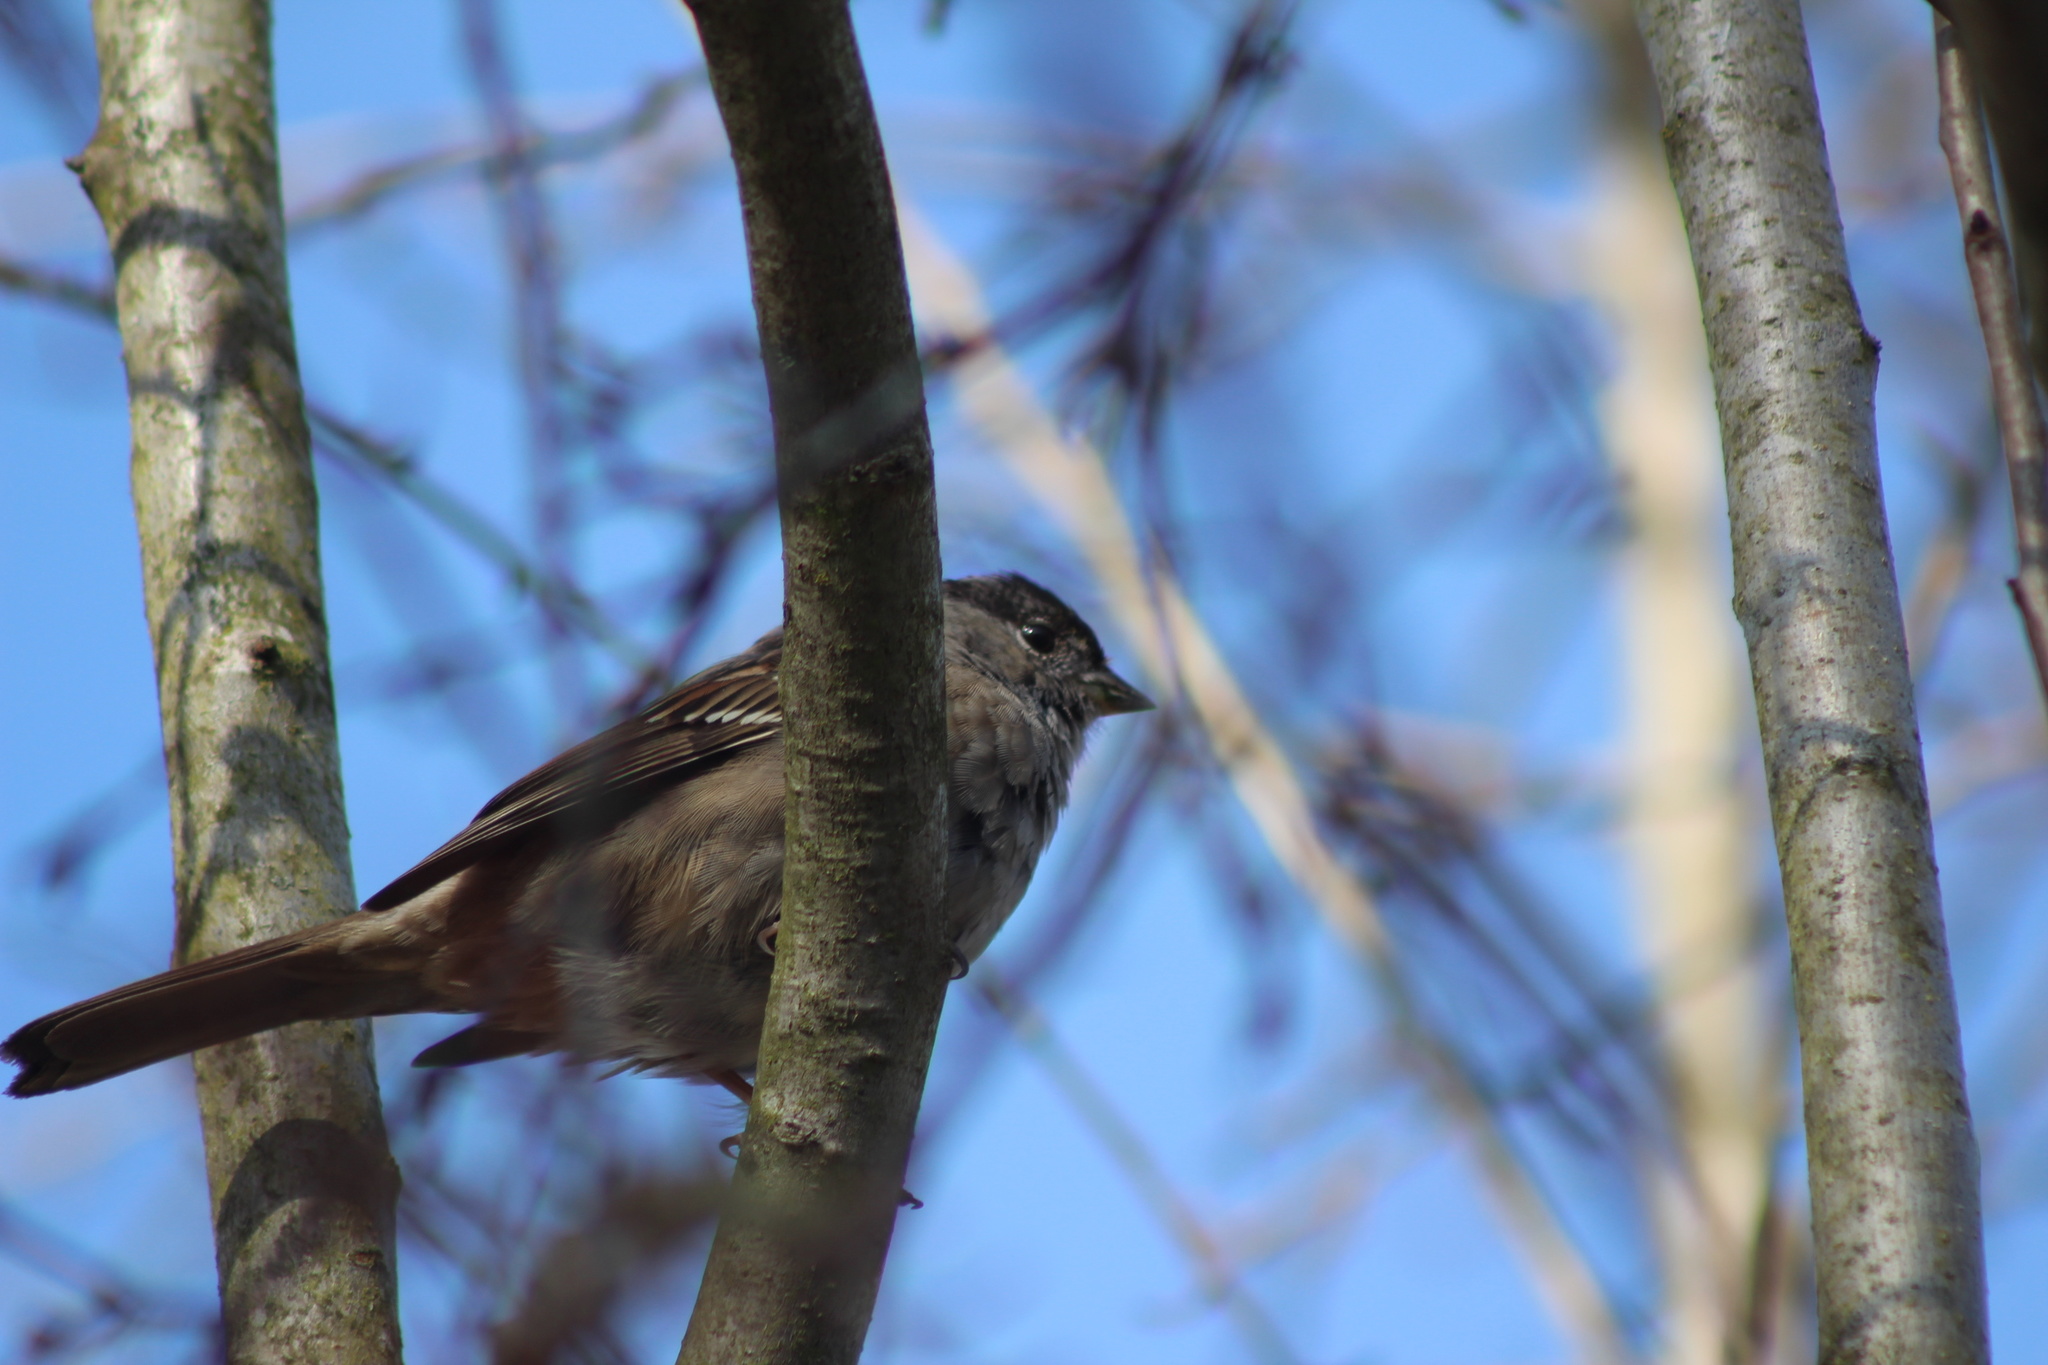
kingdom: Animalia
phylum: Chordata
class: Aves
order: Passeriformes
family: Passerellidae
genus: Zonotrichia
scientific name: Zonotrichia atricapilla
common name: Golden-crowned sparrow
